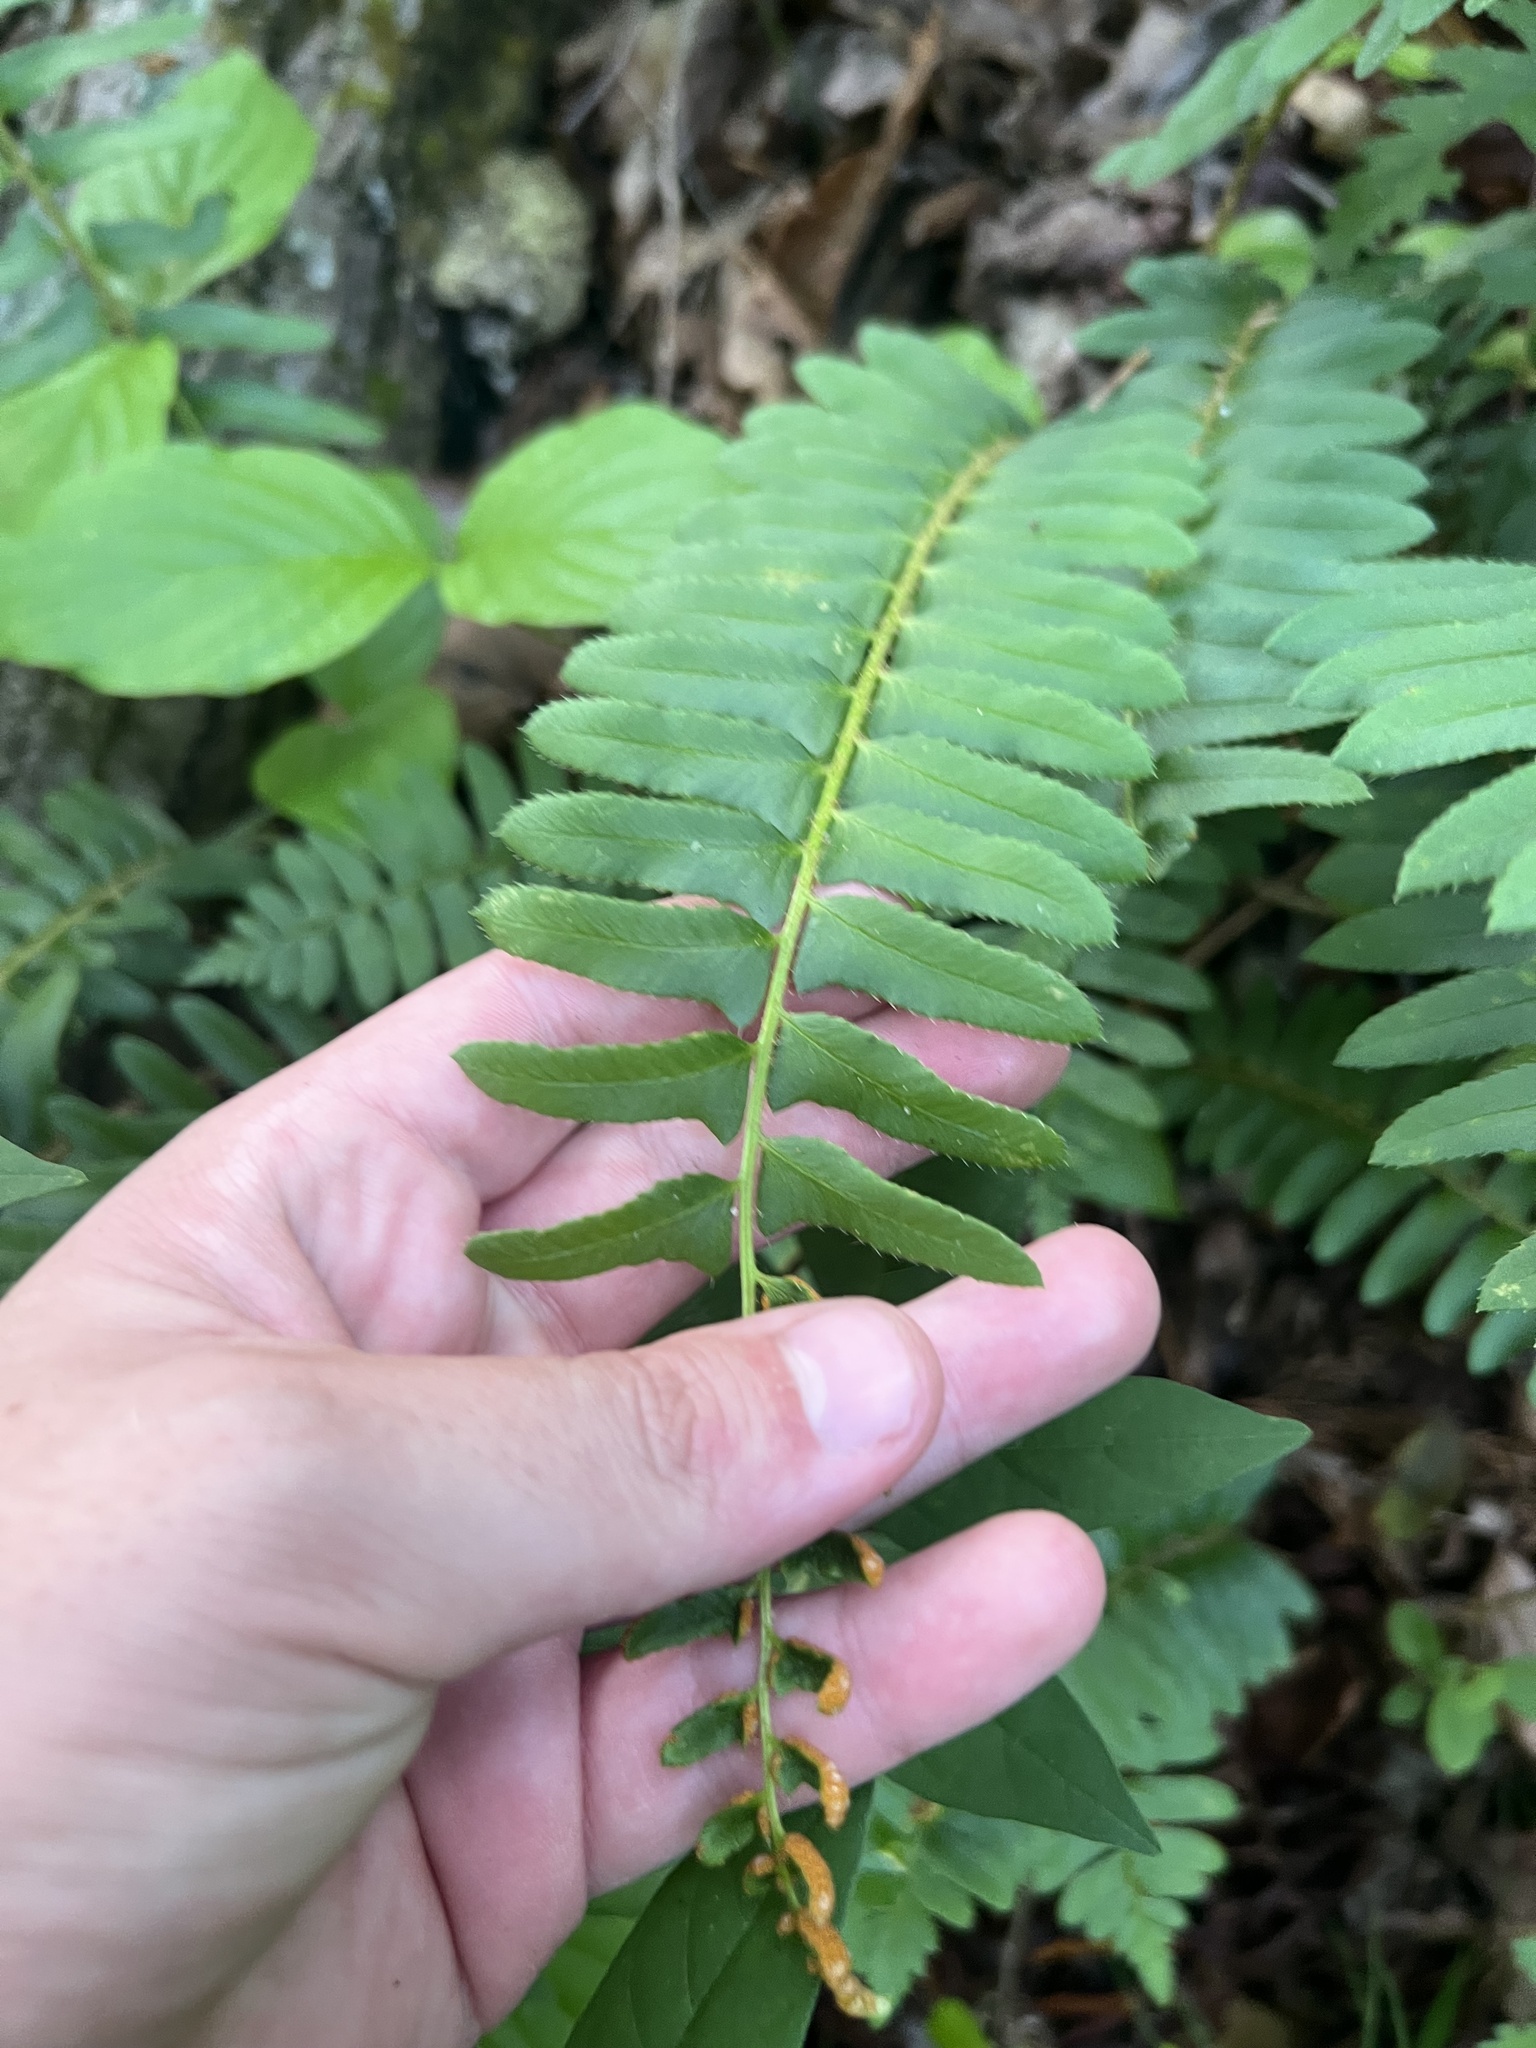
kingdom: Plantae
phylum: Tracheophyta
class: Polypodiopsida
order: Polypodiales
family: Dryopteridaceae
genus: Polystichum
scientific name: Polystichum acrostichoides
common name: Christmas fern
